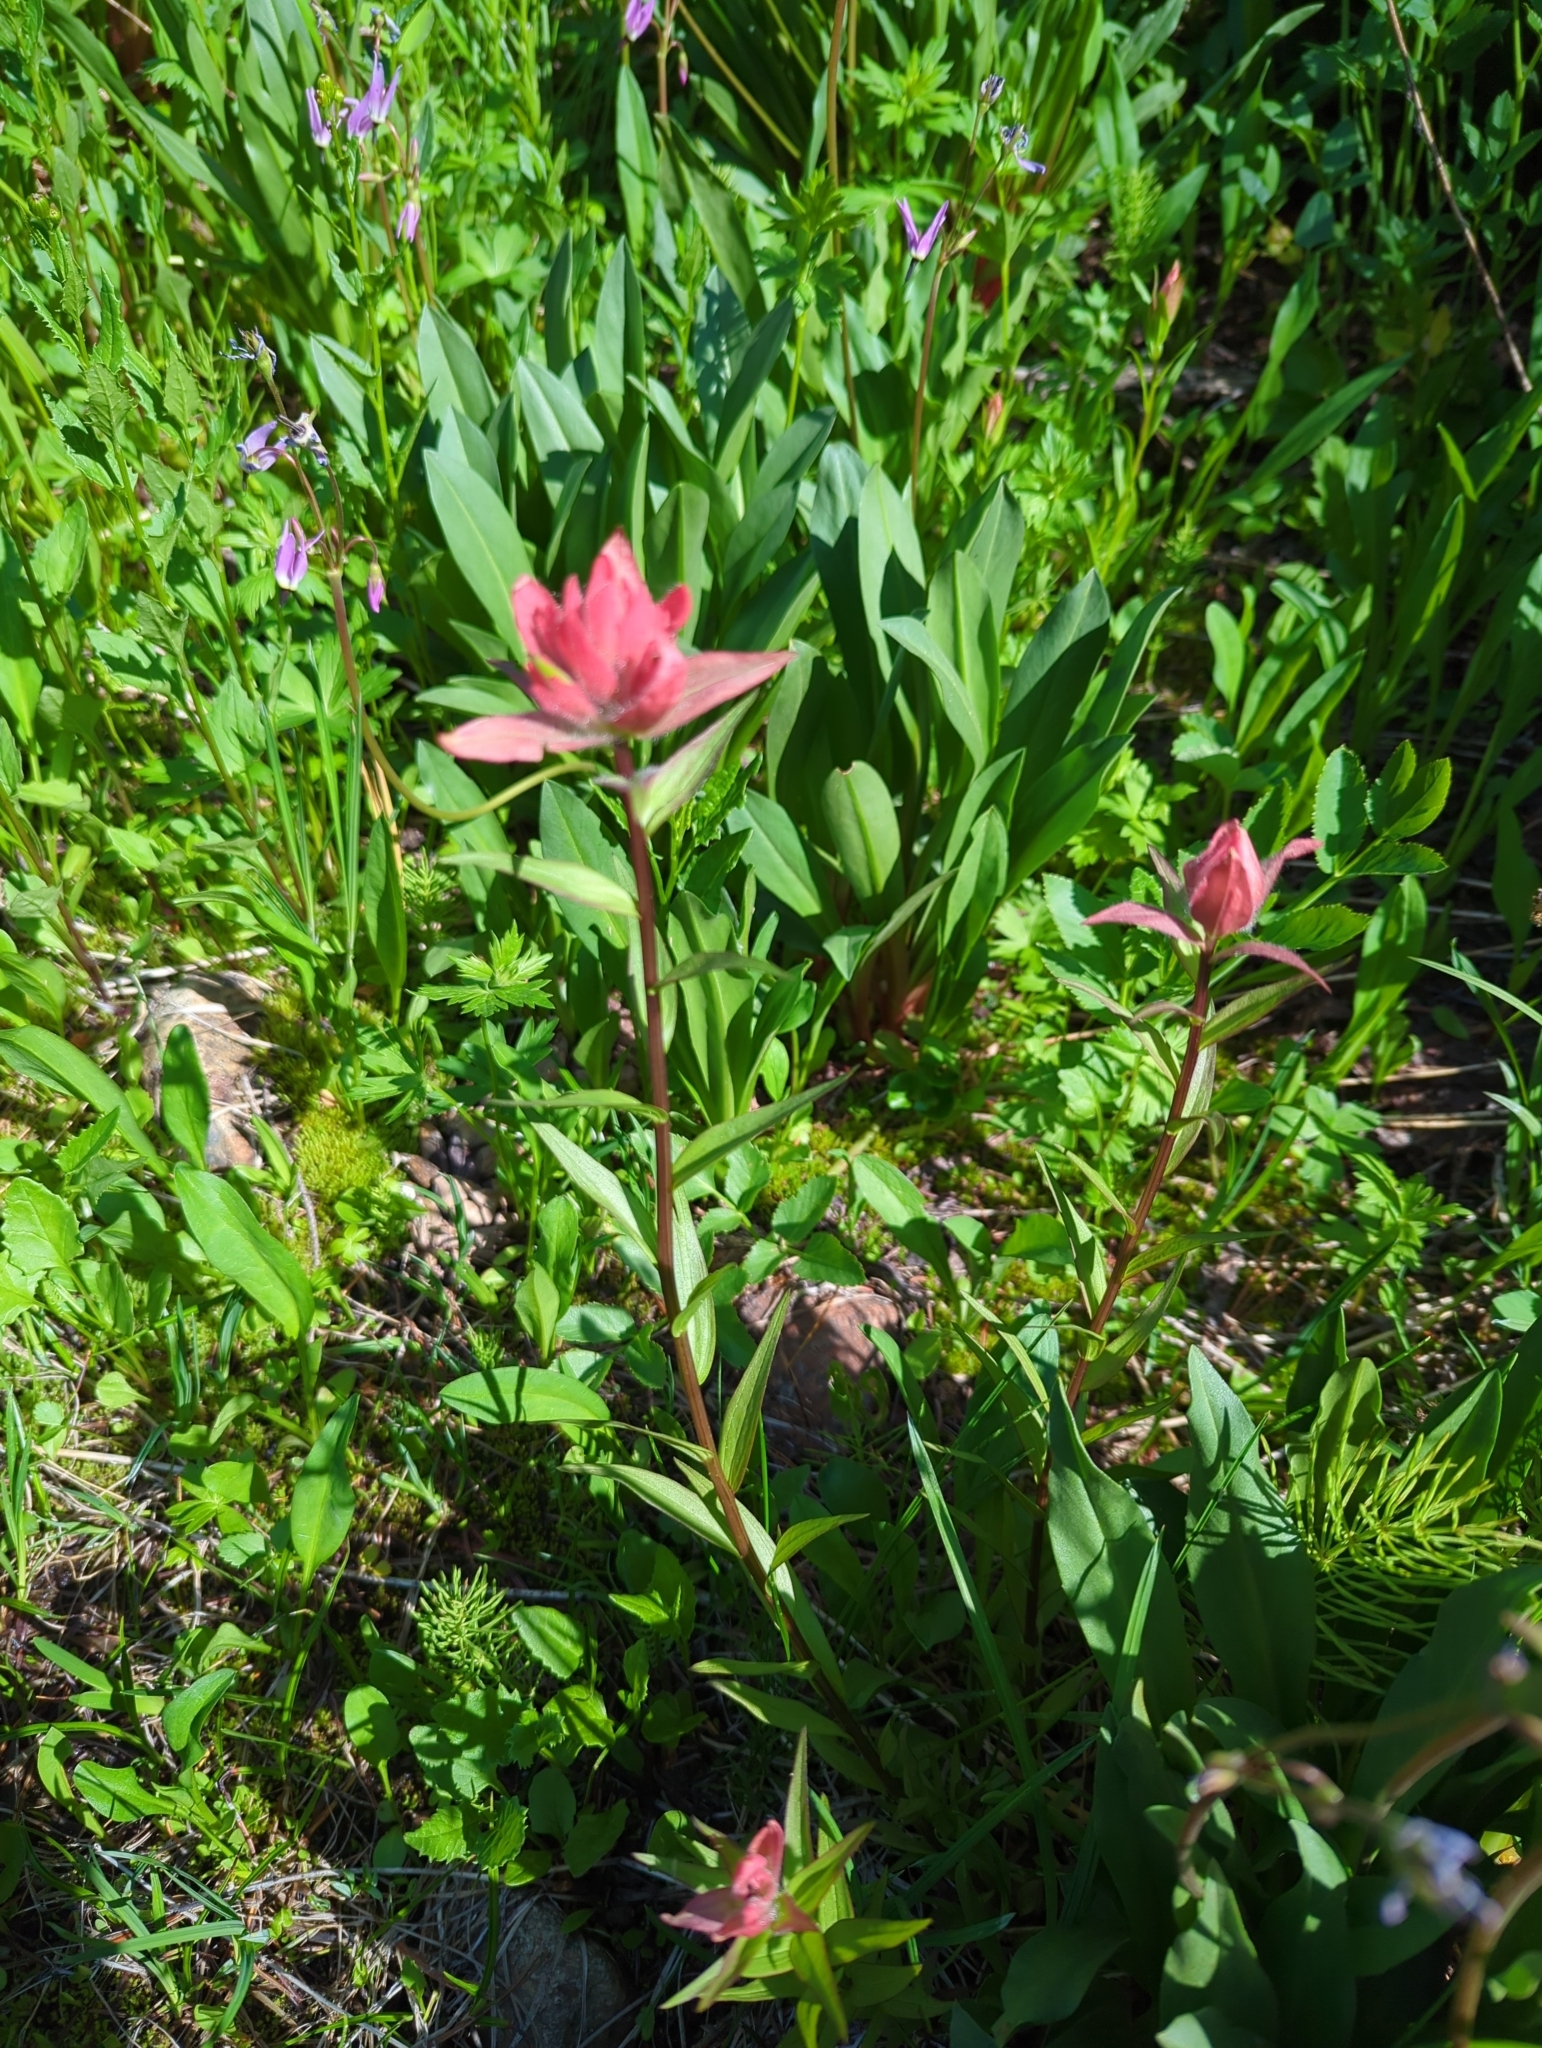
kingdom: Plantae
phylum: Tracheophyta
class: Magnoliopsida
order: Lamiales
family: Orobanchaceae
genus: Castilleja
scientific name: Castilleja miniata
